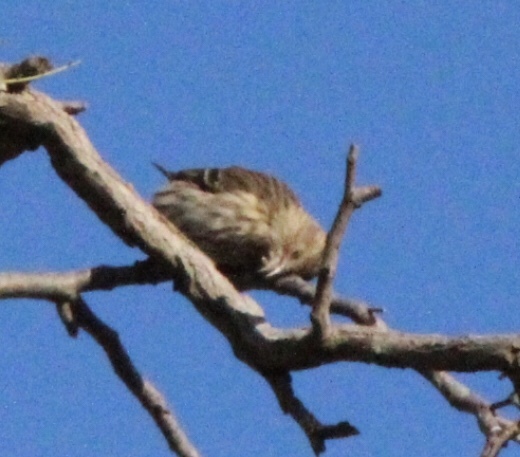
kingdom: Animalia
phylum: Chordata
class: Aves
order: Passeriformes
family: Fringillidae
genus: Spinus
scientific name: Spinus pinus
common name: Pine siskin
